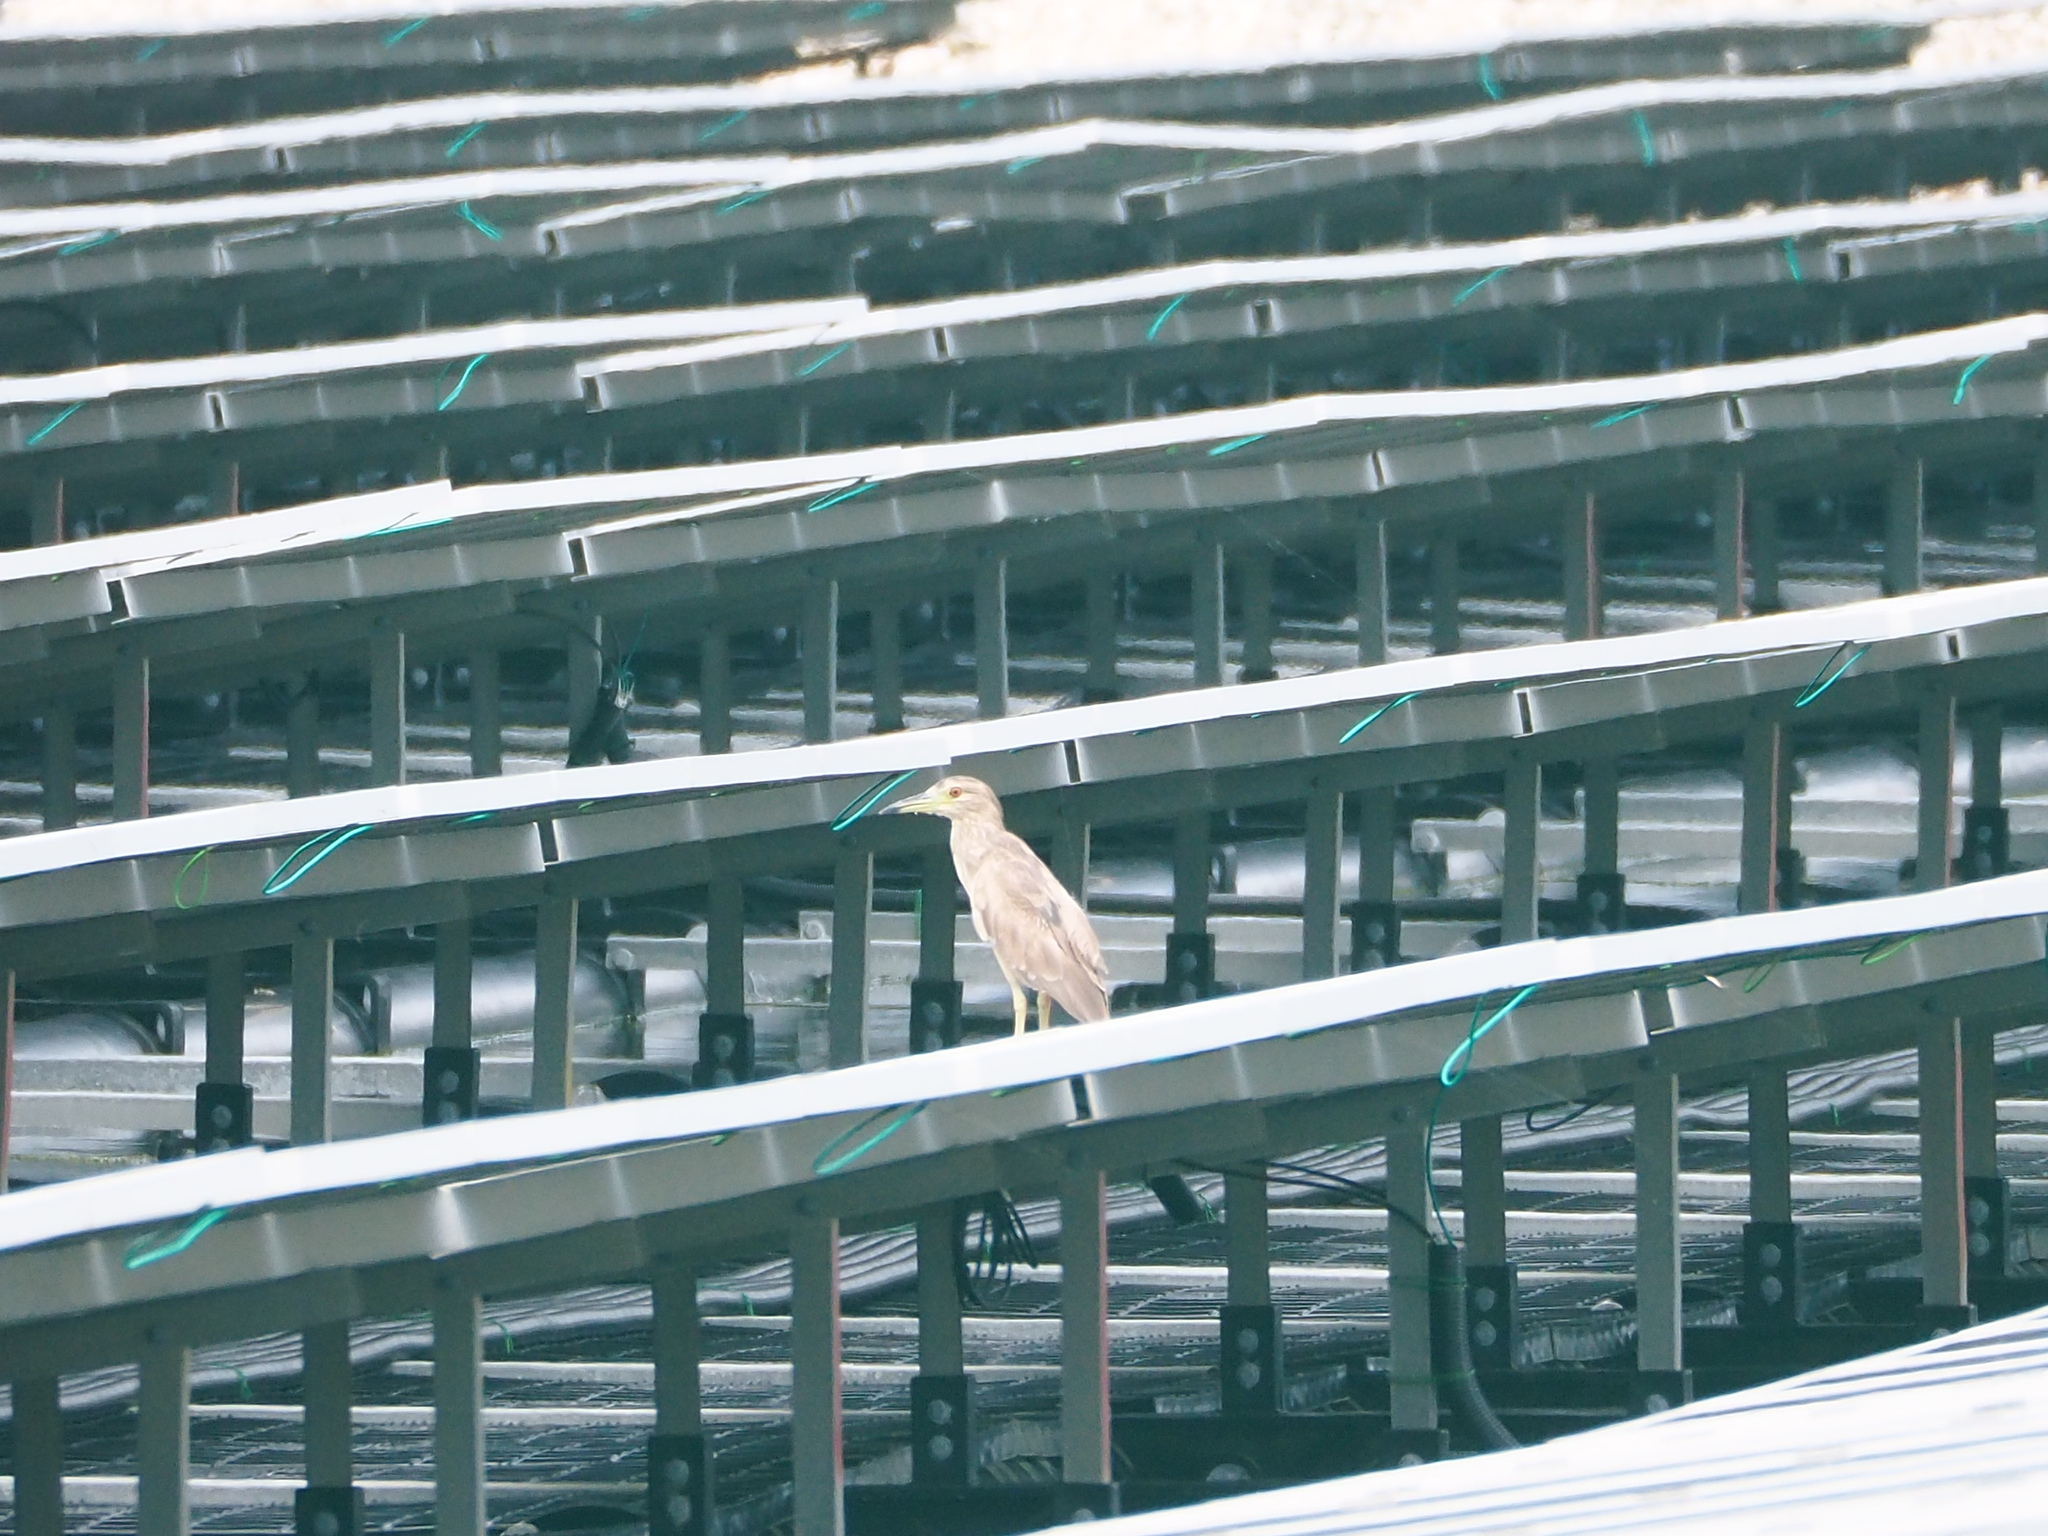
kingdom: Animalia
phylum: Chordata
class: Aves
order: Pelecaniformes
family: Ardeidae
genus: Nycticorax
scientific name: Nycticorax nycticorax
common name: Black-crowned night heron
